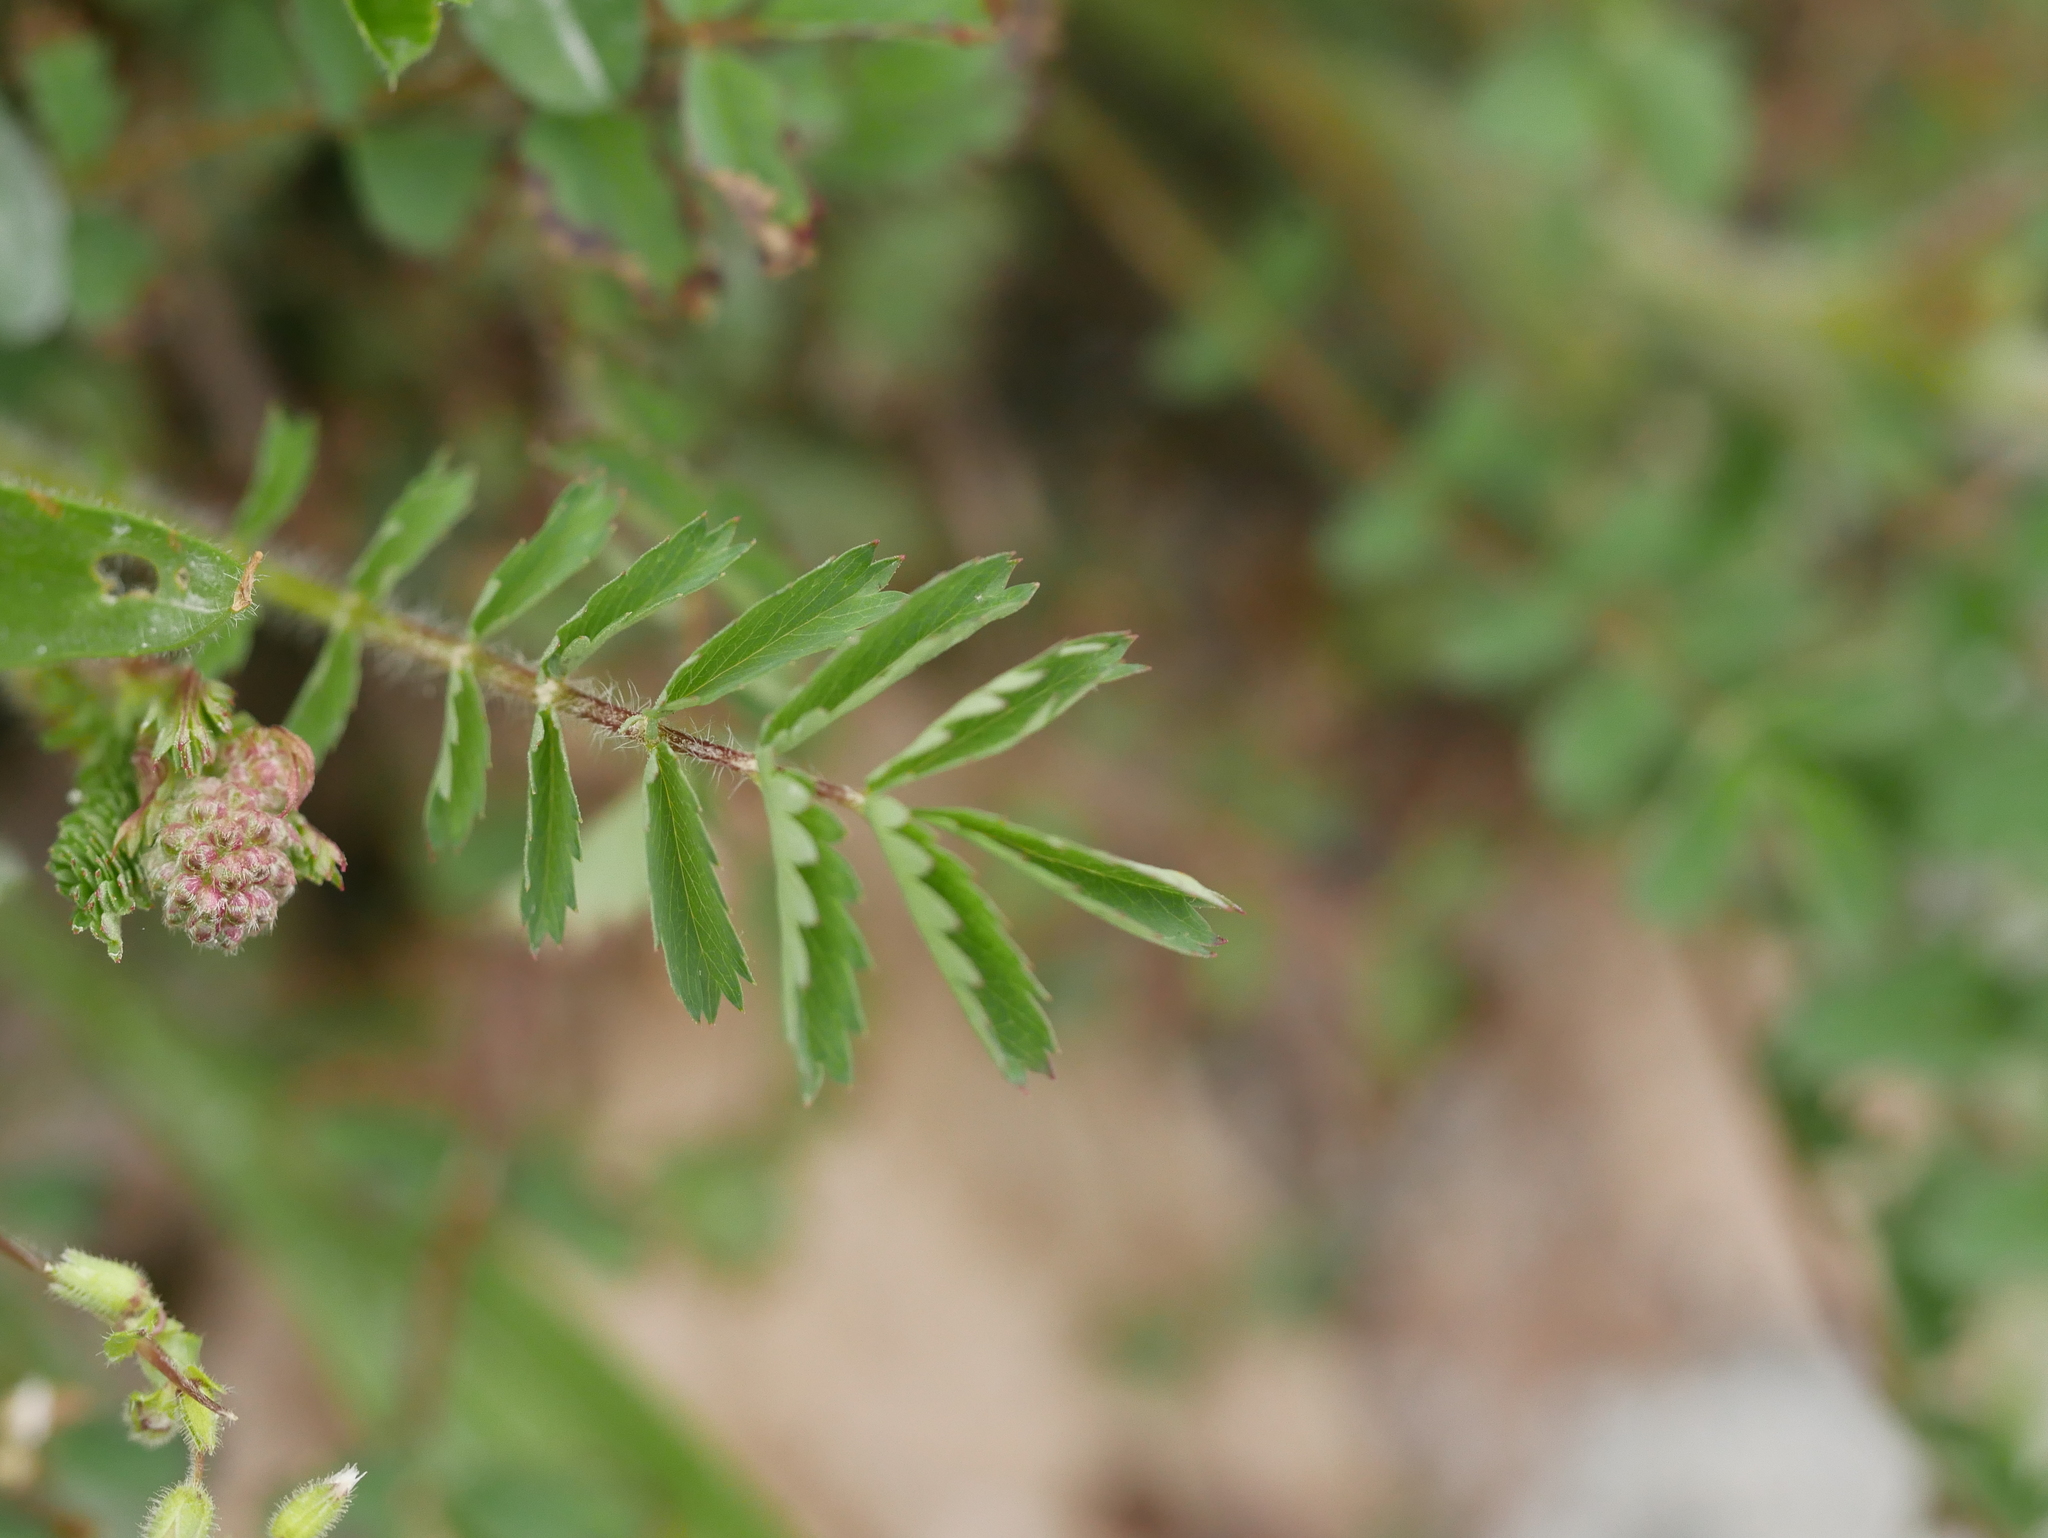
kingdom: Plantae
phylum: Tracheophyta
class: Magnoliopsida
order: Rosales
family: Rosaceae
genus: Poterium
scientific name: Poterium sanguisorba
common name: Salad burnet
